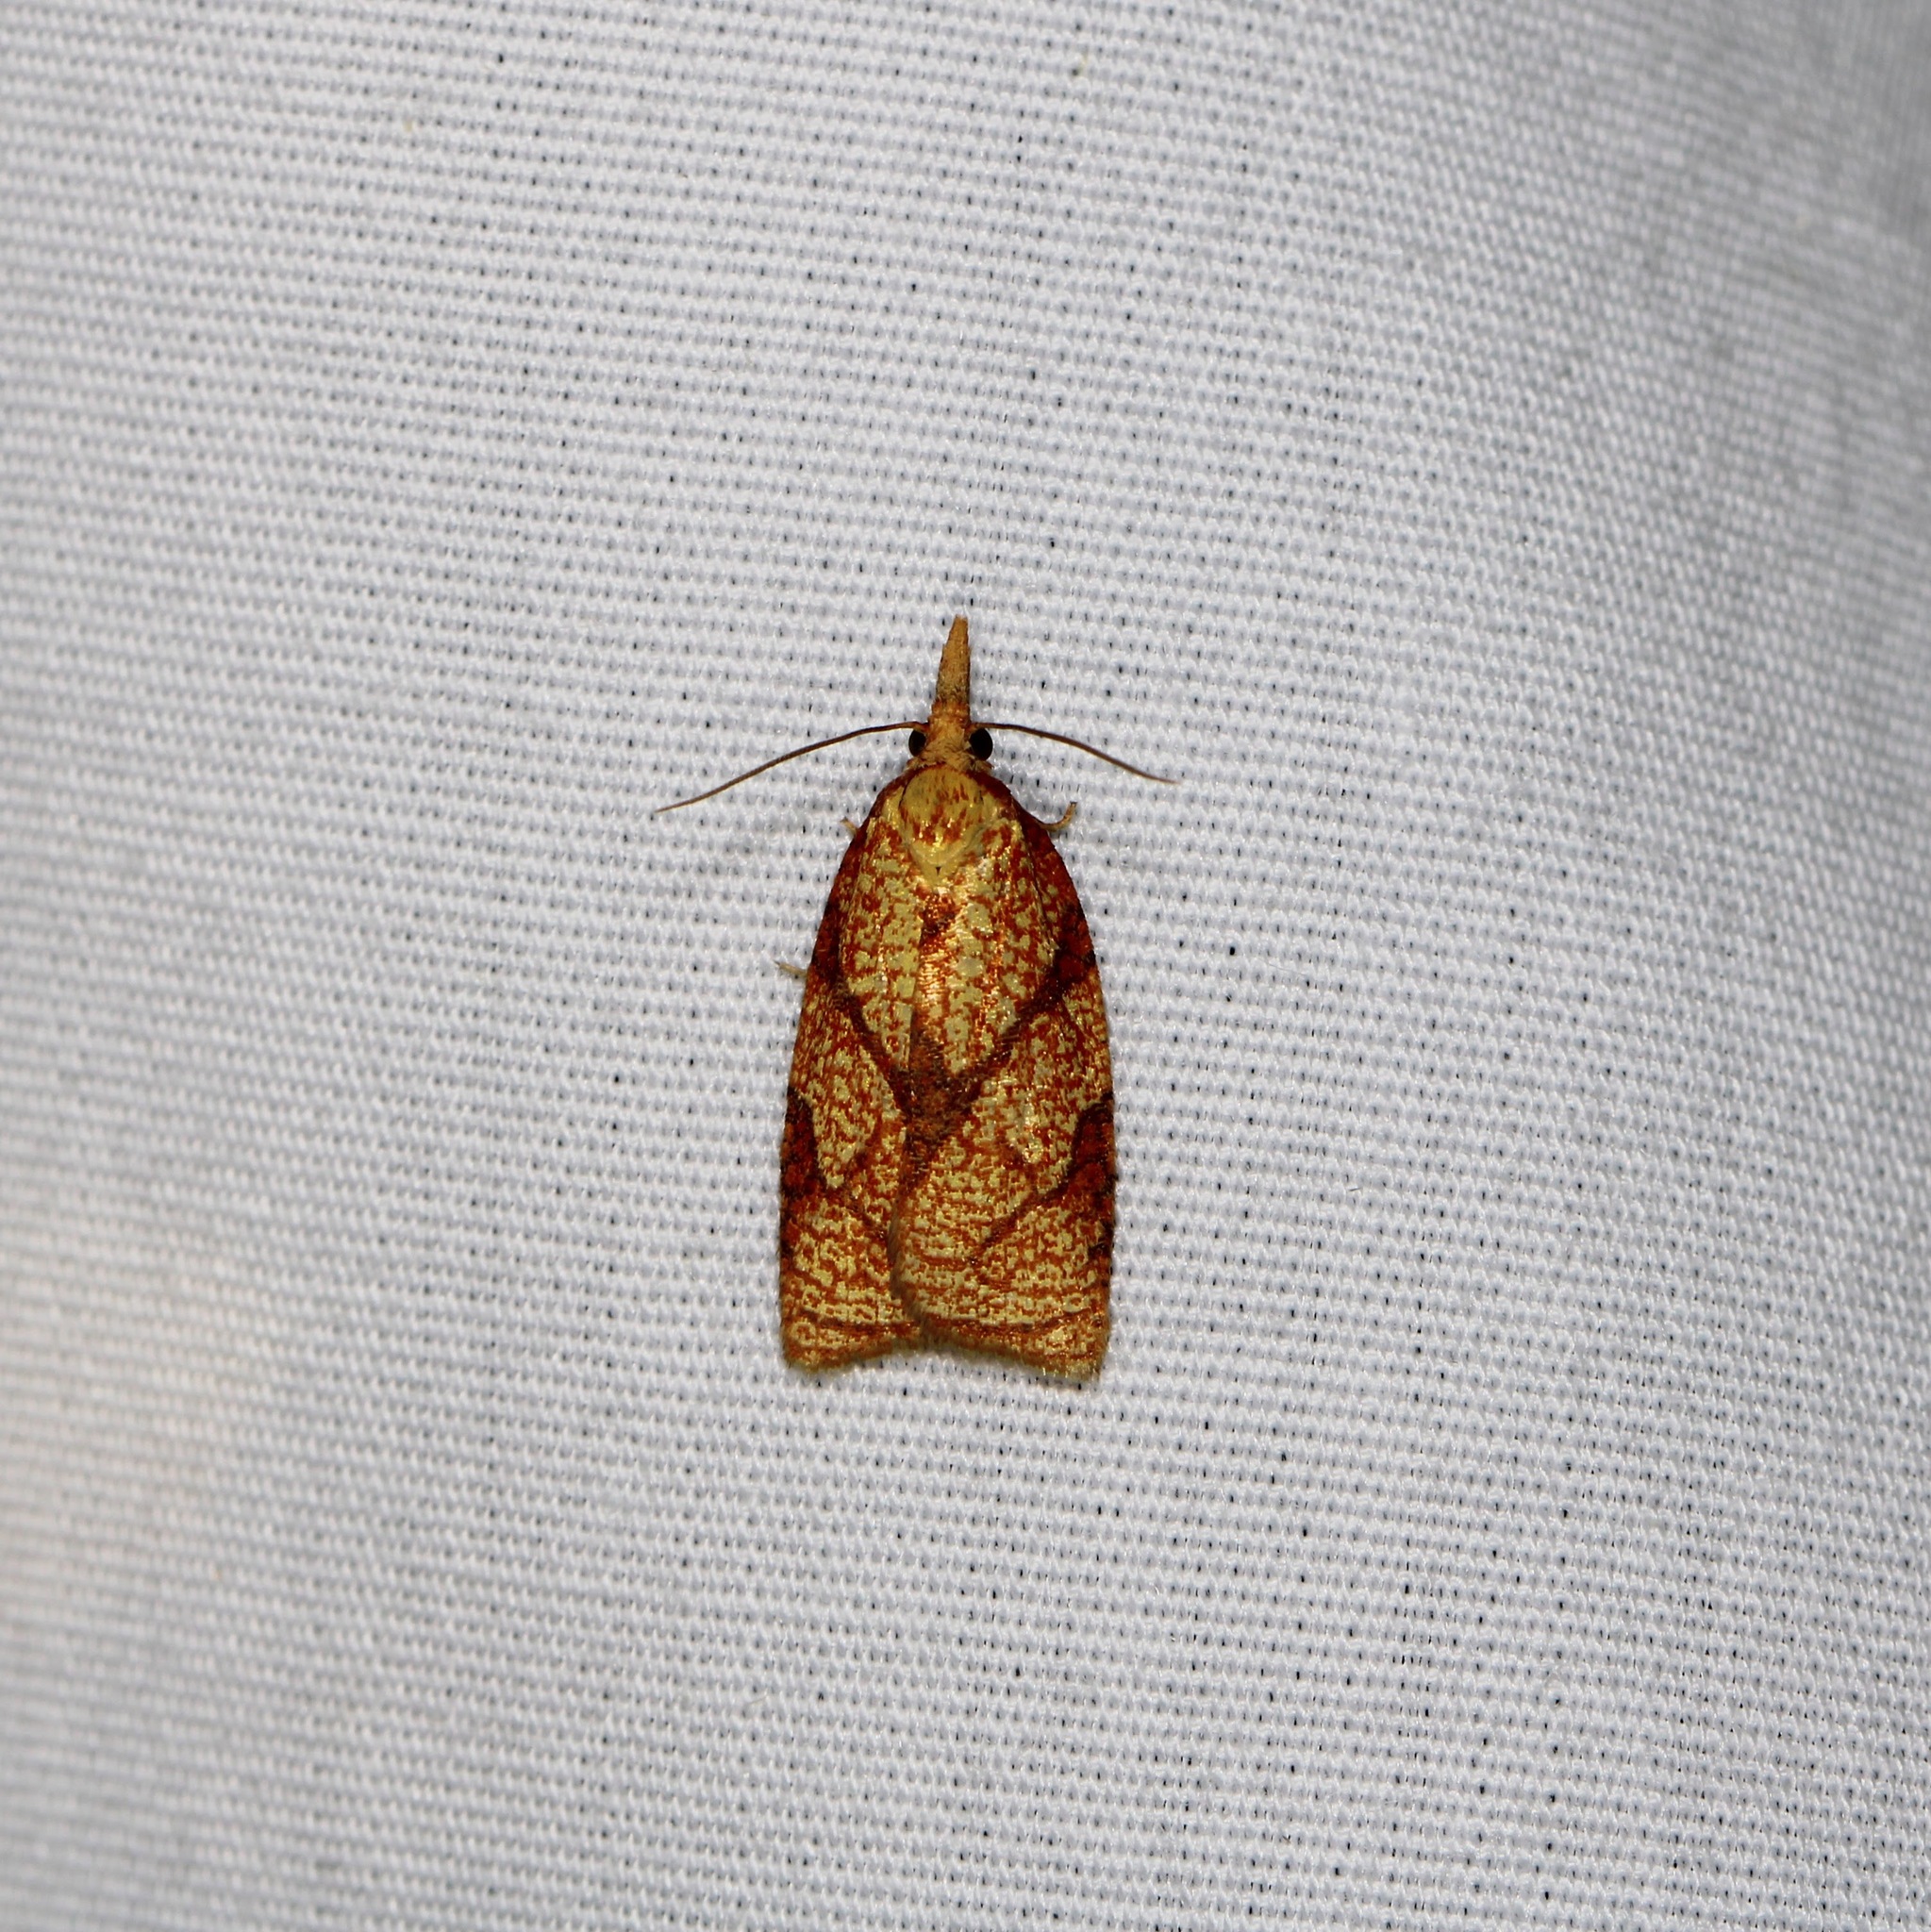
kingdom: Animalia
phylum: Arthropoda
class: Insecta
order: Lepidoptera
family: Tortricidae
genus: Cenopis
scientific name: Cenopis reticulatana
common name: Reticulated fruitworm moth
